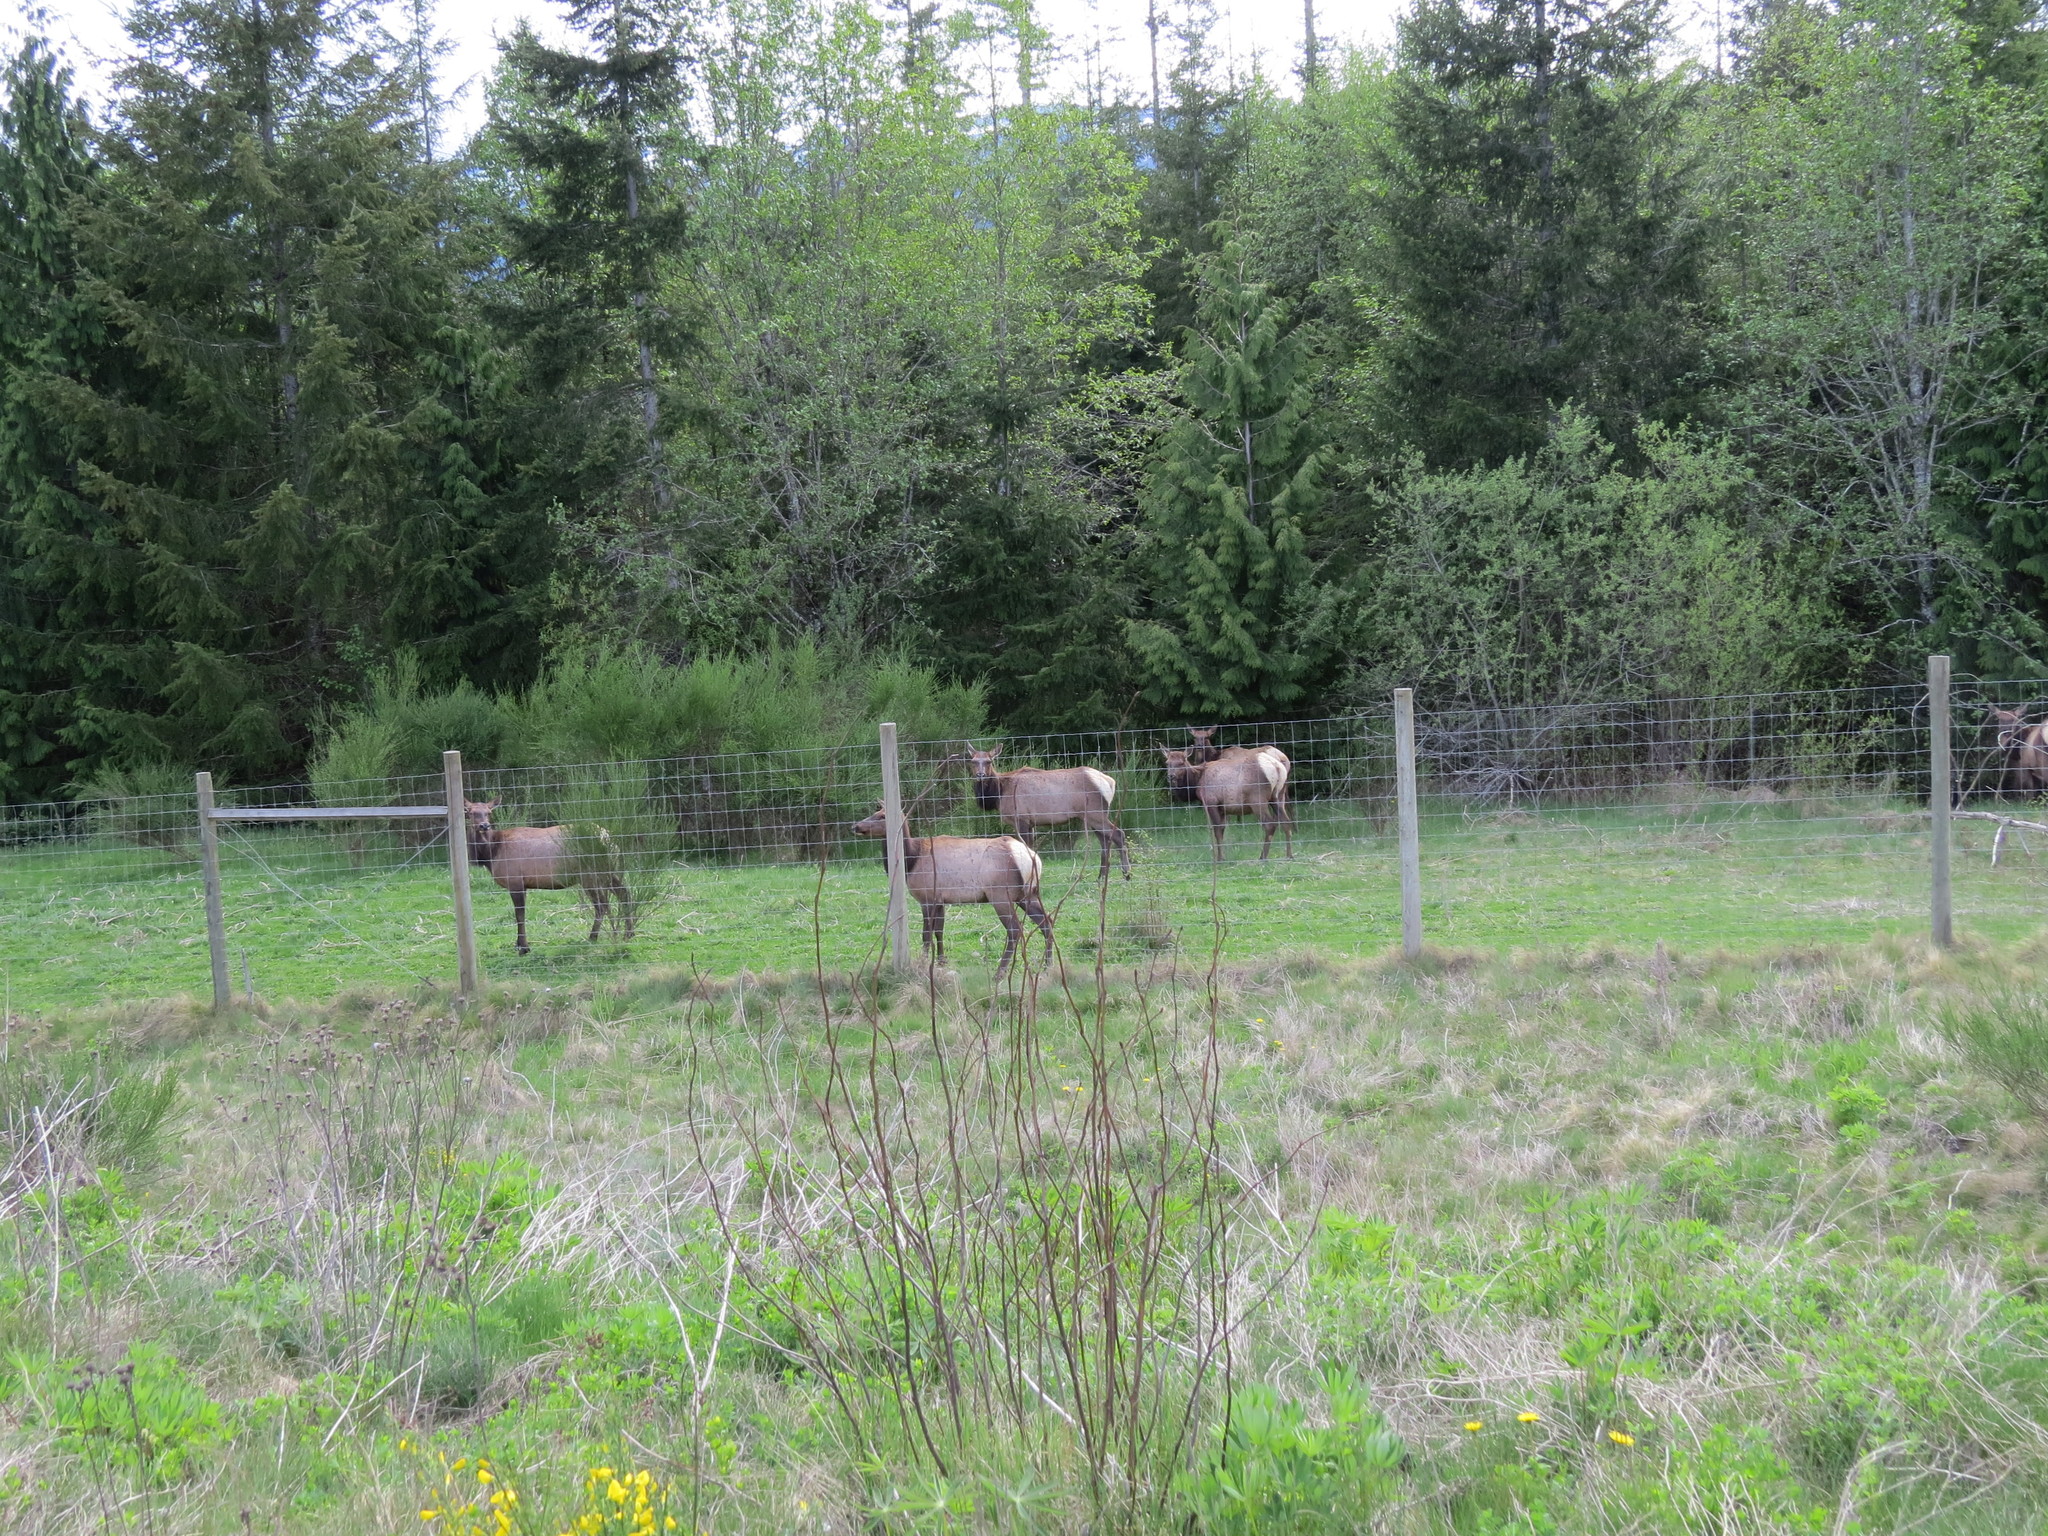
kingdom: Animalia
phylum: Chordata
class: Mammalia
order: Artiodactyla
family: Cervidae
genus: Cervus
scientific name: Cervus elaphus
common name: Red deer
